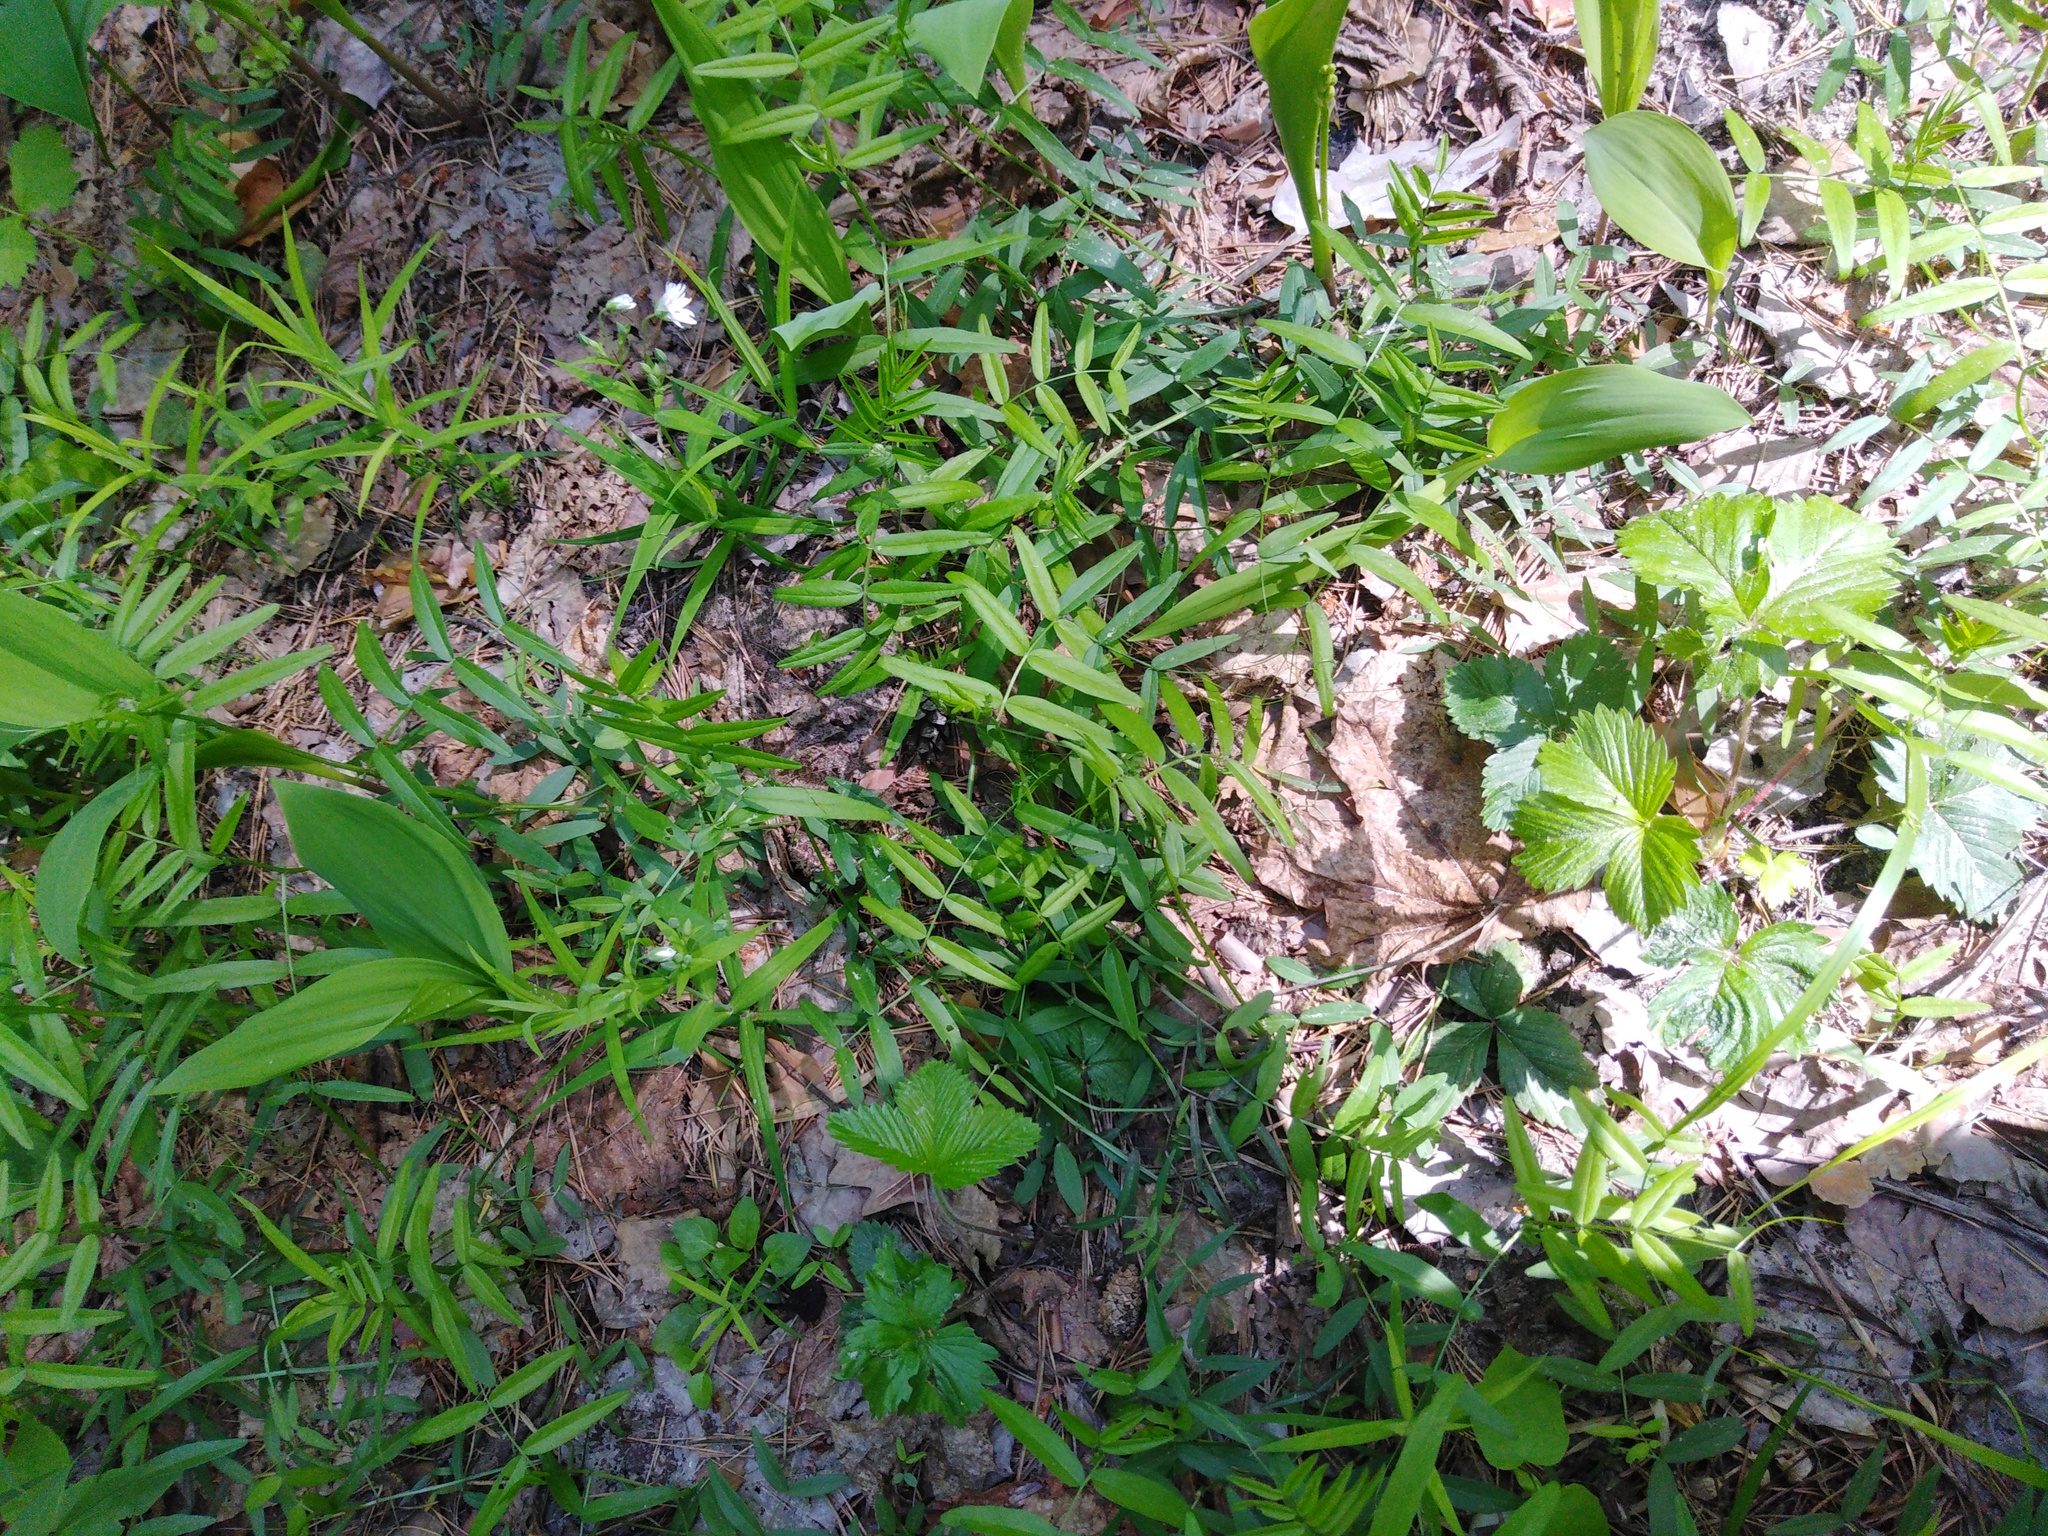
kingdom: Plantae
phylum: Tracheophyta
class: Magnoliopsida
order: Fabales
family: Fabaceae
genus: Vicia
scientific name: Vicia sepium
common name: Bush vetch
